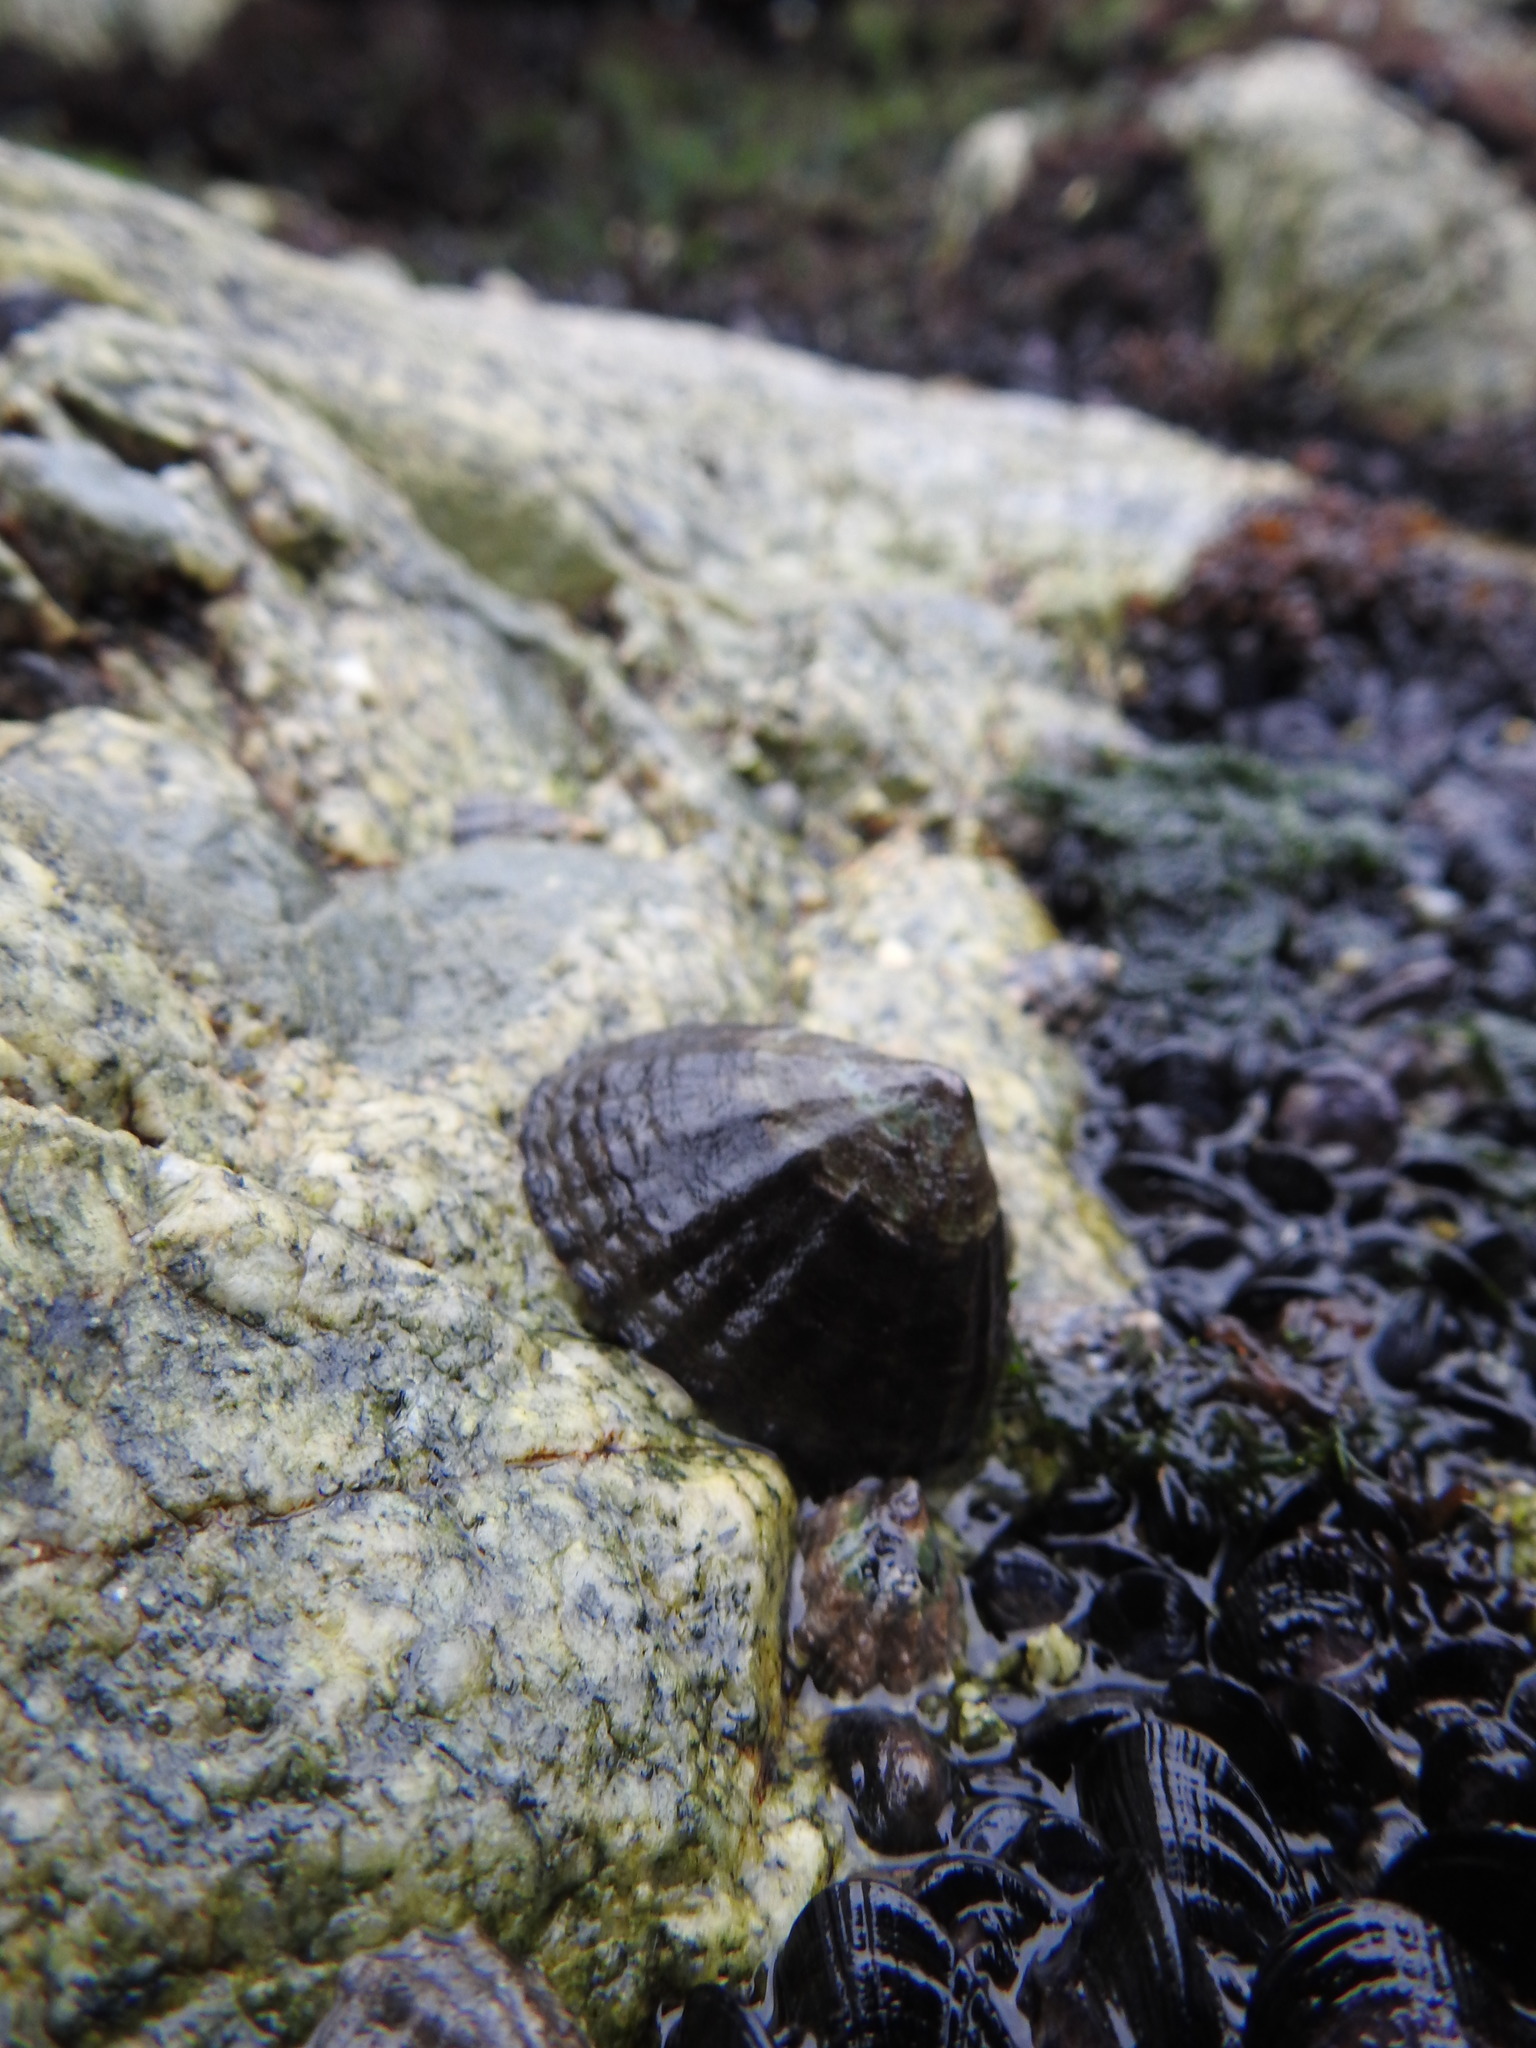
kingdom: Animalia
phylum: Mollusca
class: Gastropoda
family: Nacellidae
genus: Nacella
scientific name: Nacella magellanica
